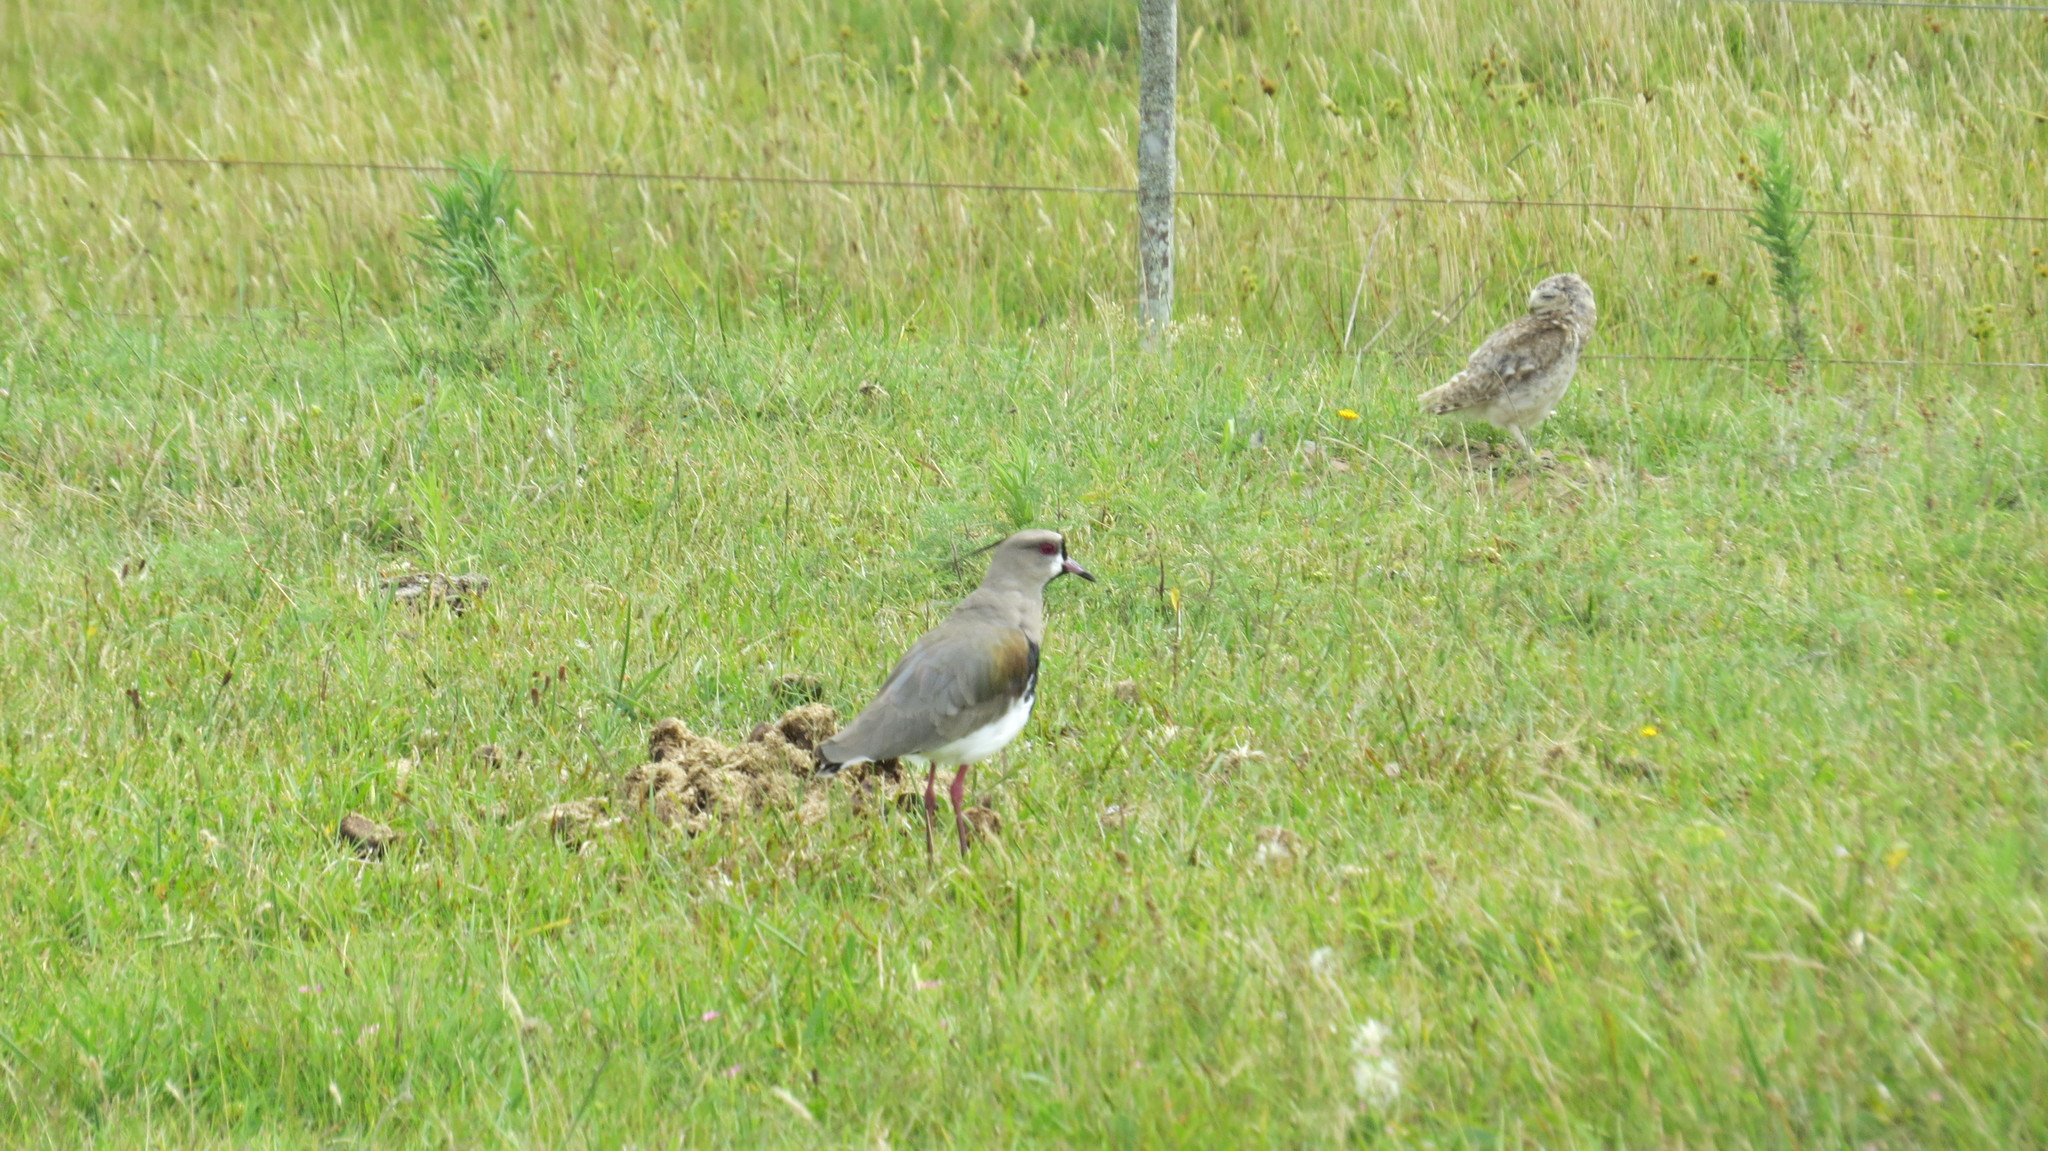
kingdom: Animalia
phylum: Chordata
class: Aves
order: Charadriiformes
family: Charadriidae
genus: Vanellus
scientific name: Vanellus chilensis
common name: Southern lapwing
